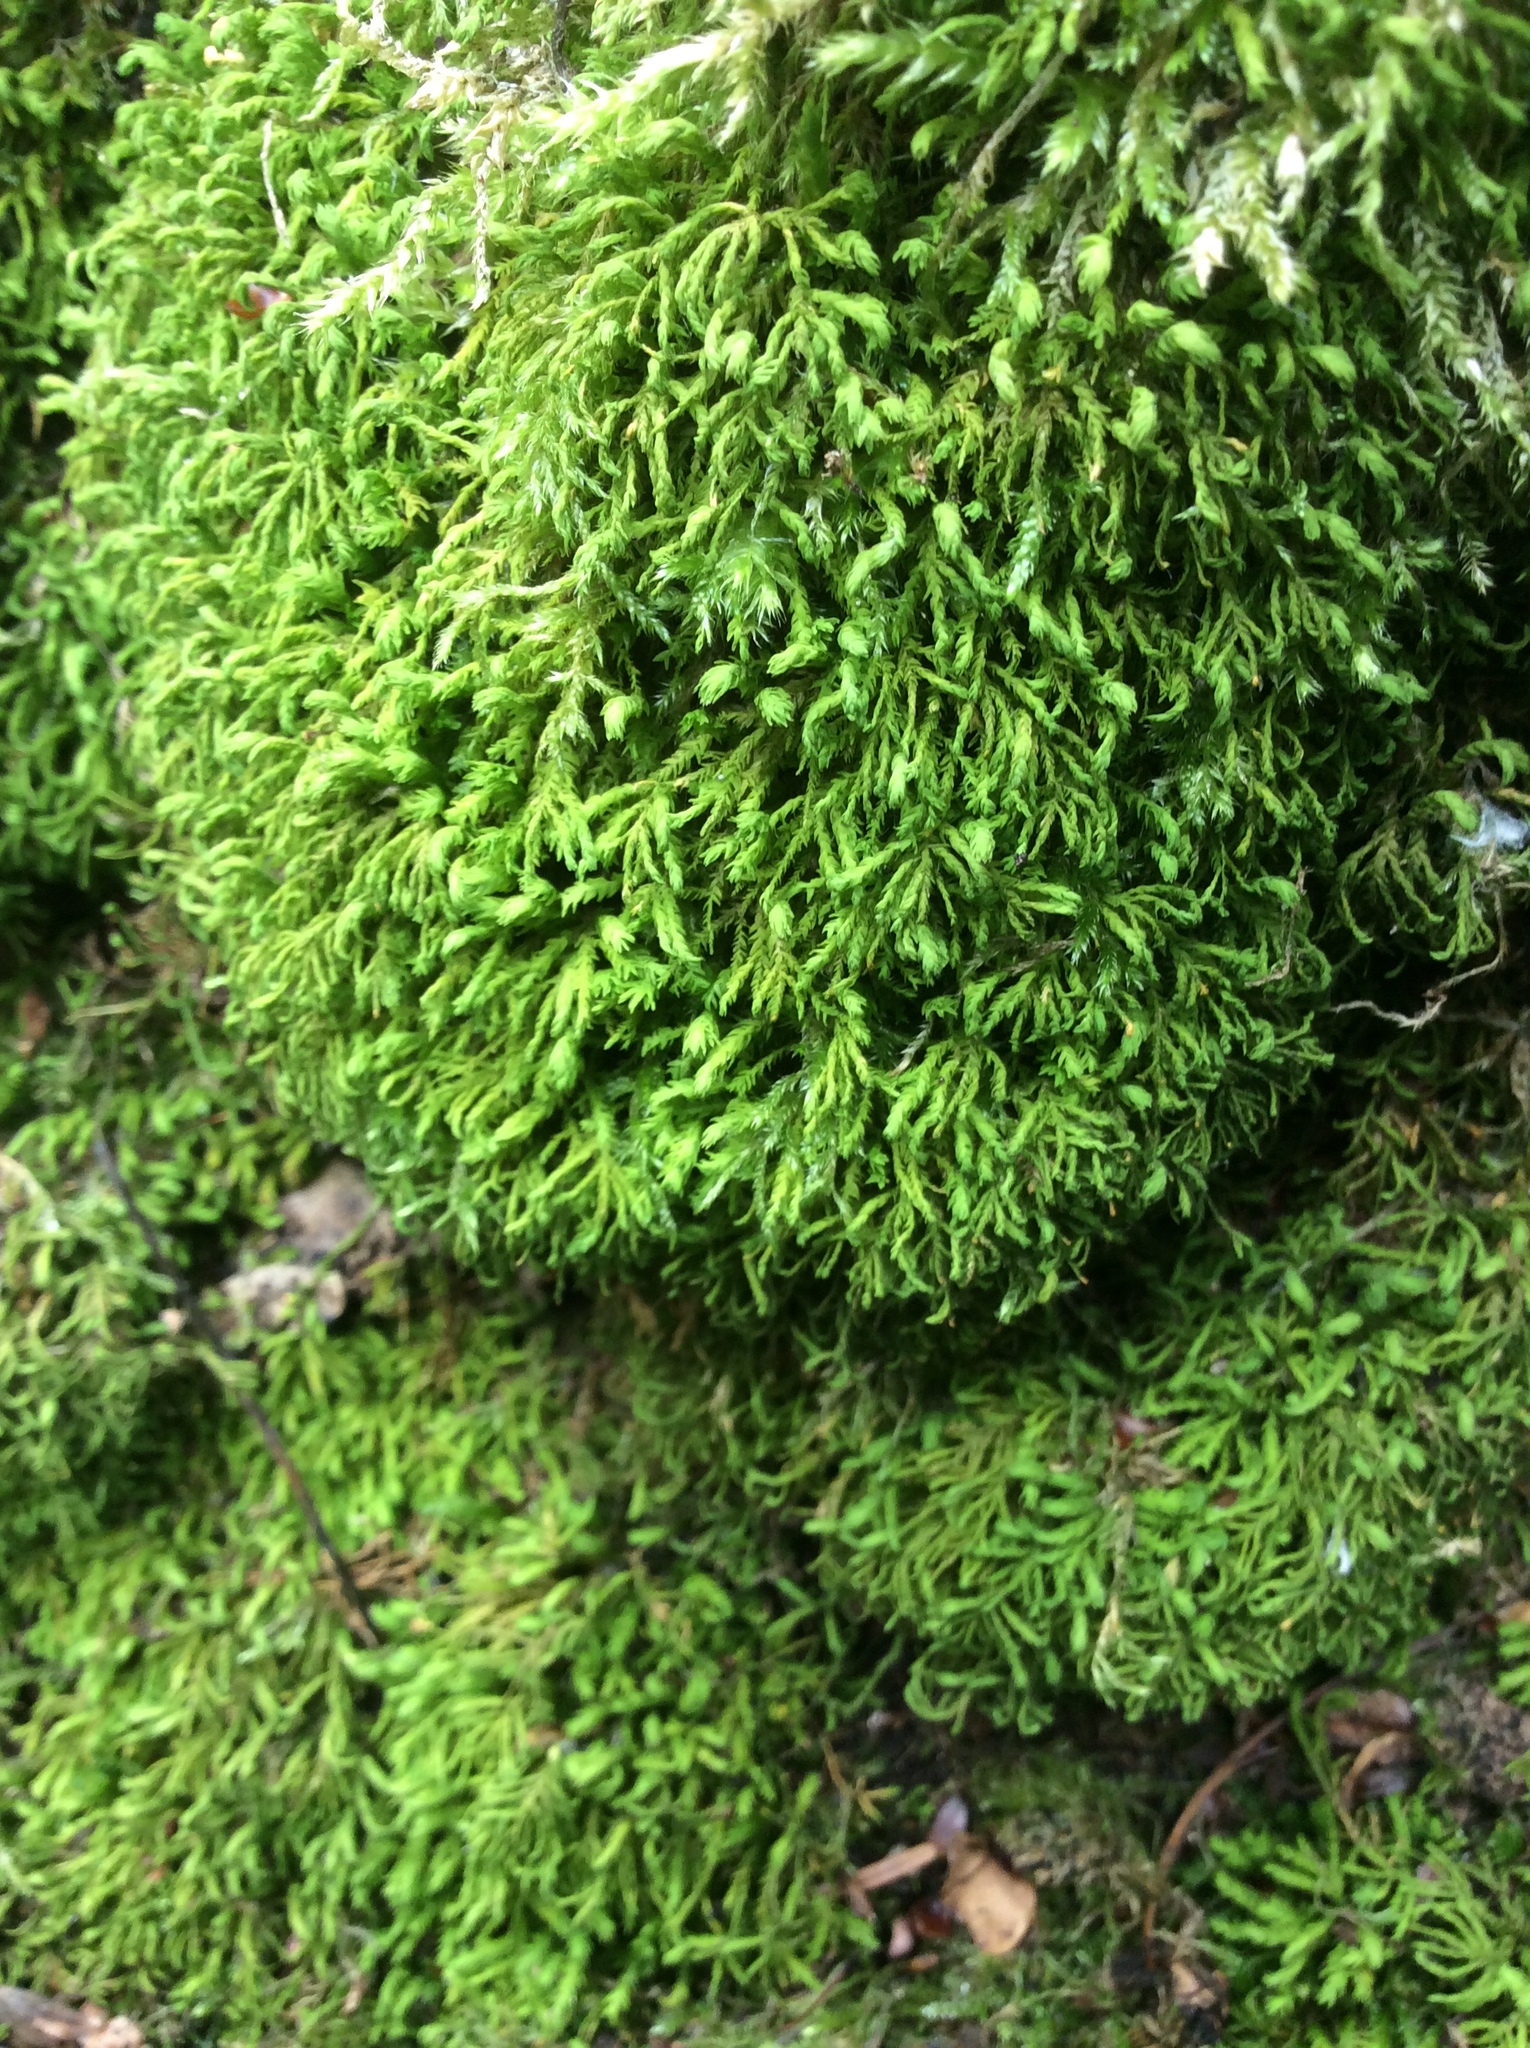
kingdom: Plantae
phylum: Bryophyta
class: Bryopsida
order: Hypnales
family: Neckeraceae
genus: Pseudanomodon
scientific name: Pseudanomodon attenuatus
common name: Tree-skirt moss
